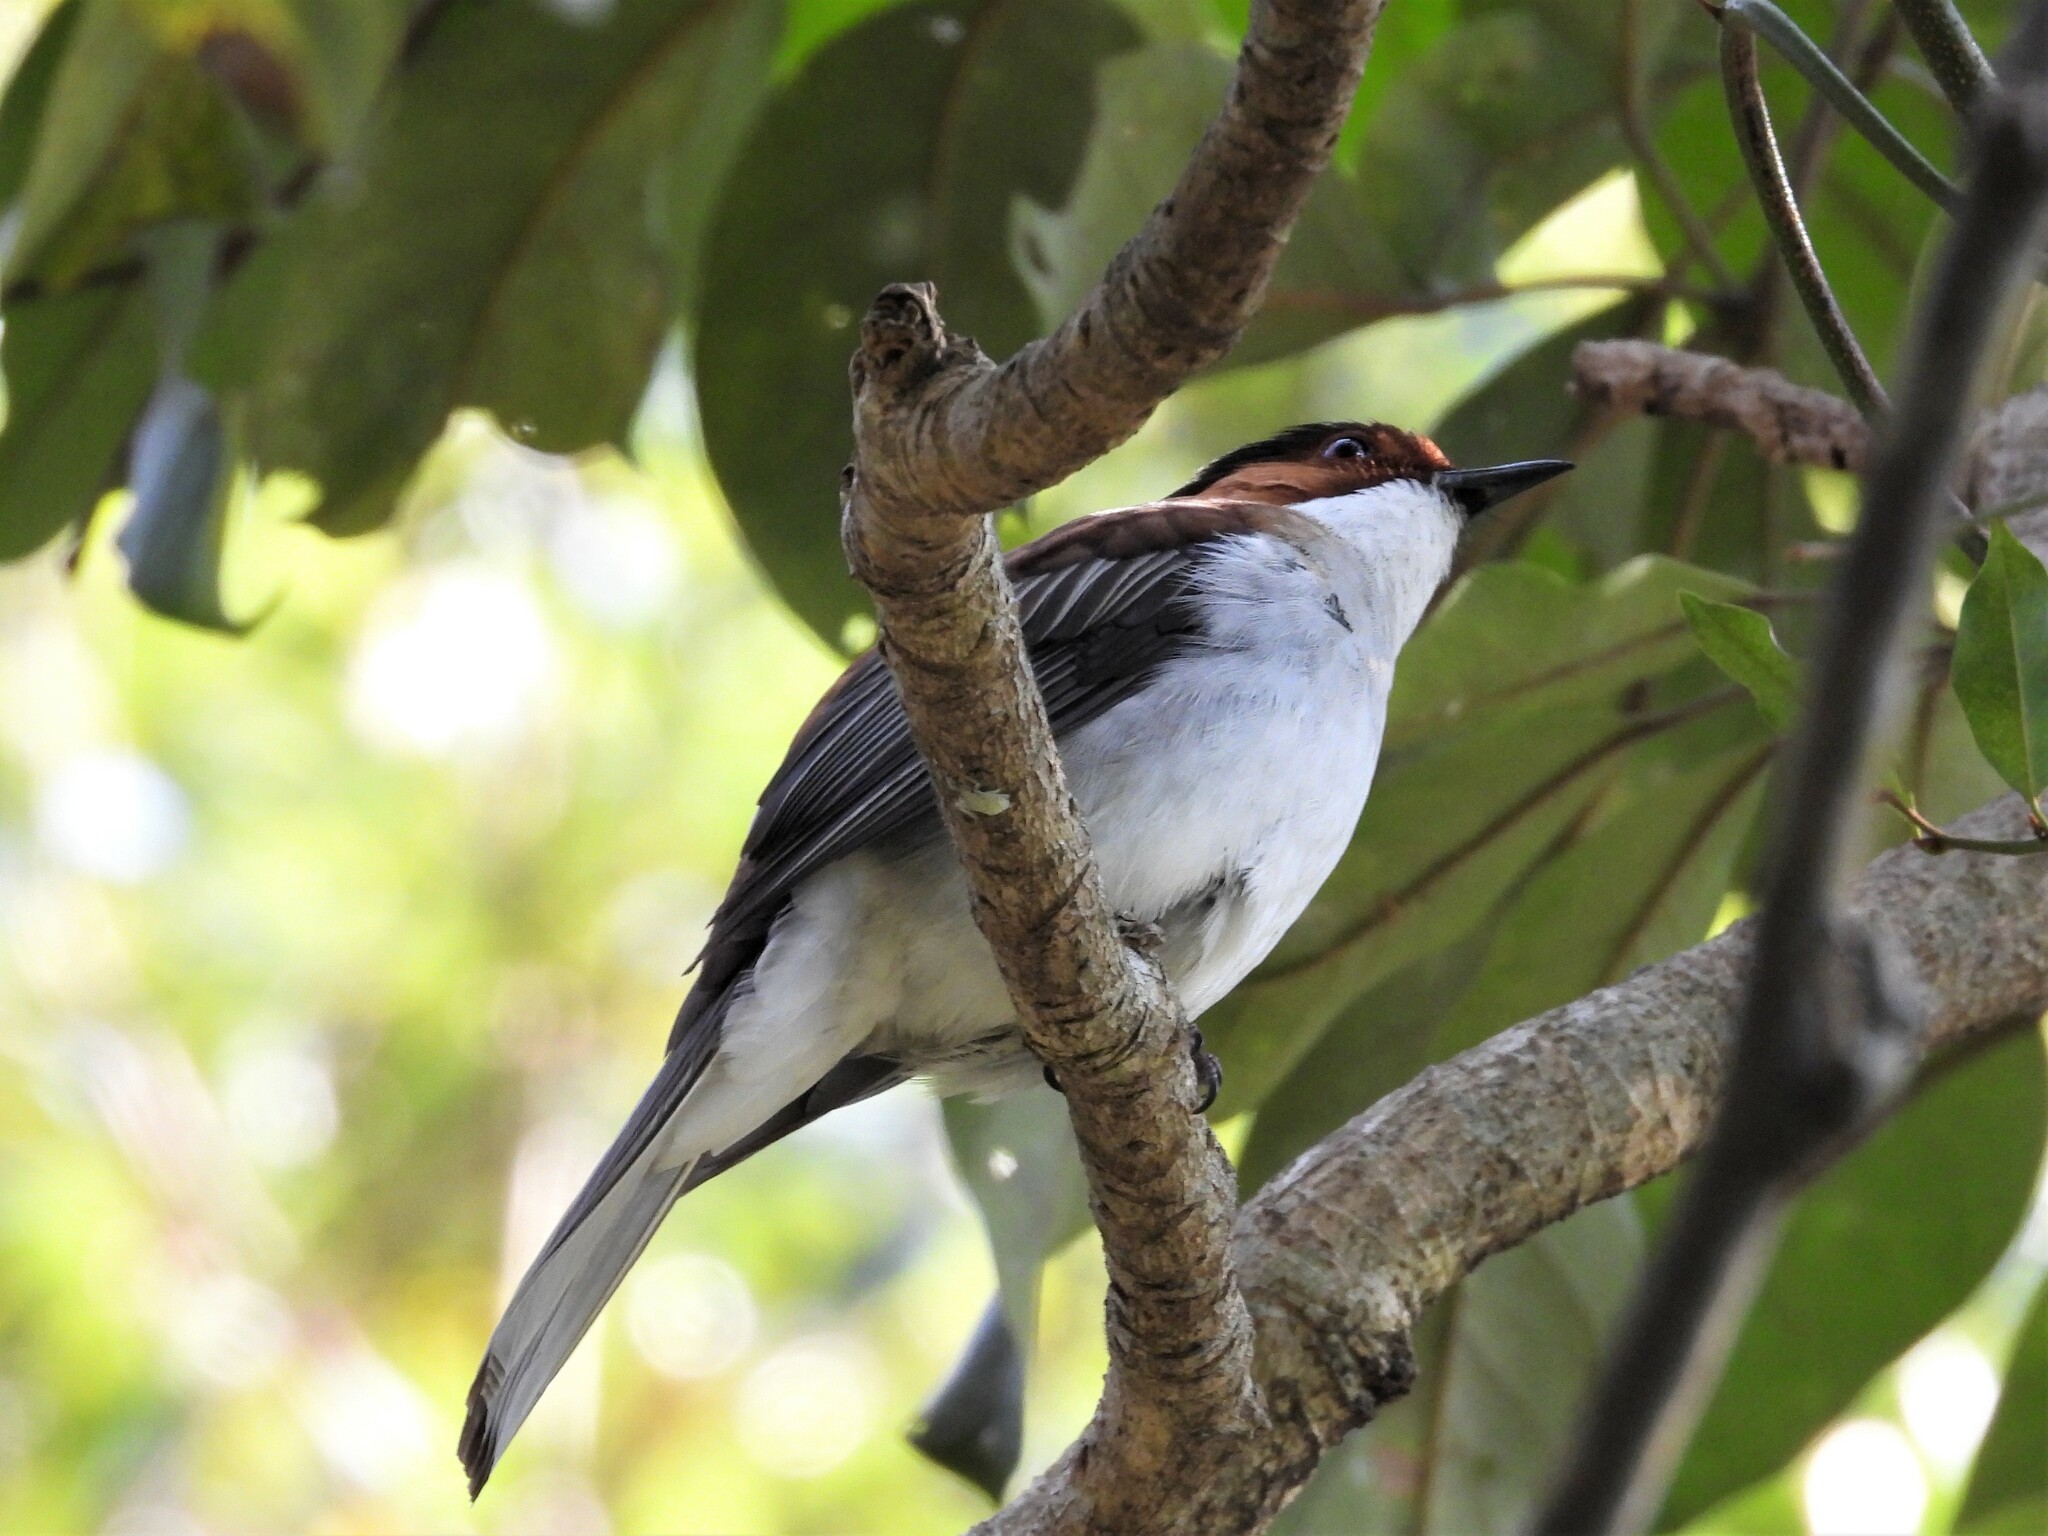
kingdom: Animalia
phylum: Chordata
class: Aves
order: Passeriformes
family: Pycnonotidae
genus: Hemixos
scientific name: Hemixos castanonotus
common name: Chestnut bulbul
